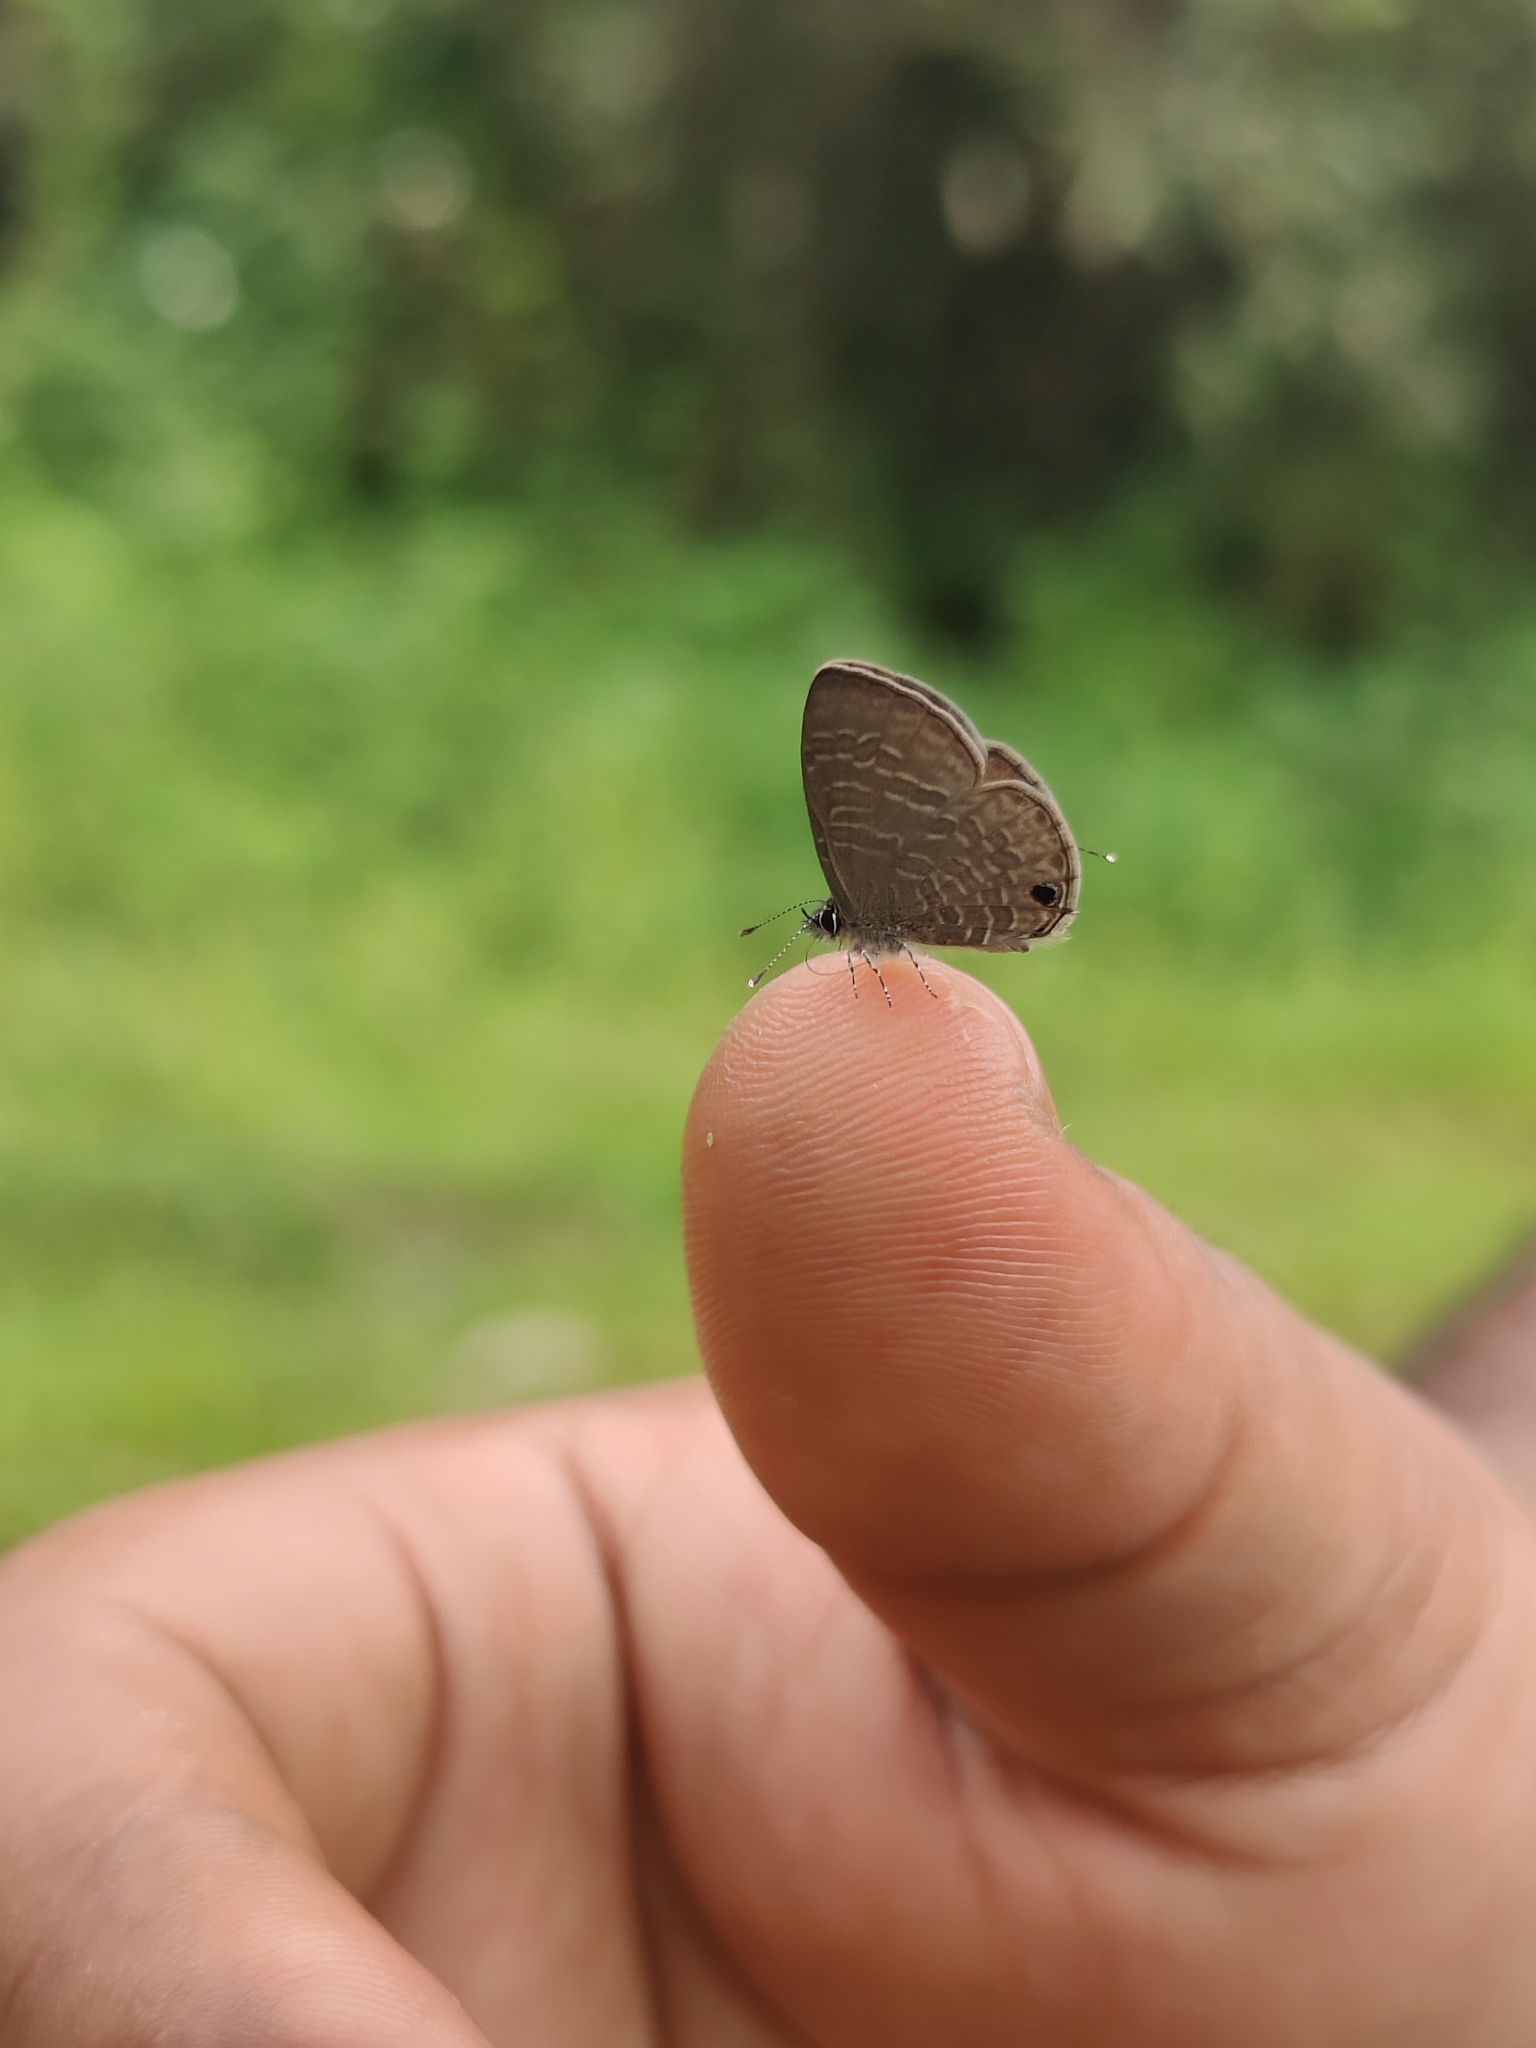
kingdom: Animalia
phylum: Arthropoda
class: Insecta
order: Lepidoptera
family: Lycaenidae
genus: Prosotas
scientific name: Prosotas nora
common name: Common line blue
